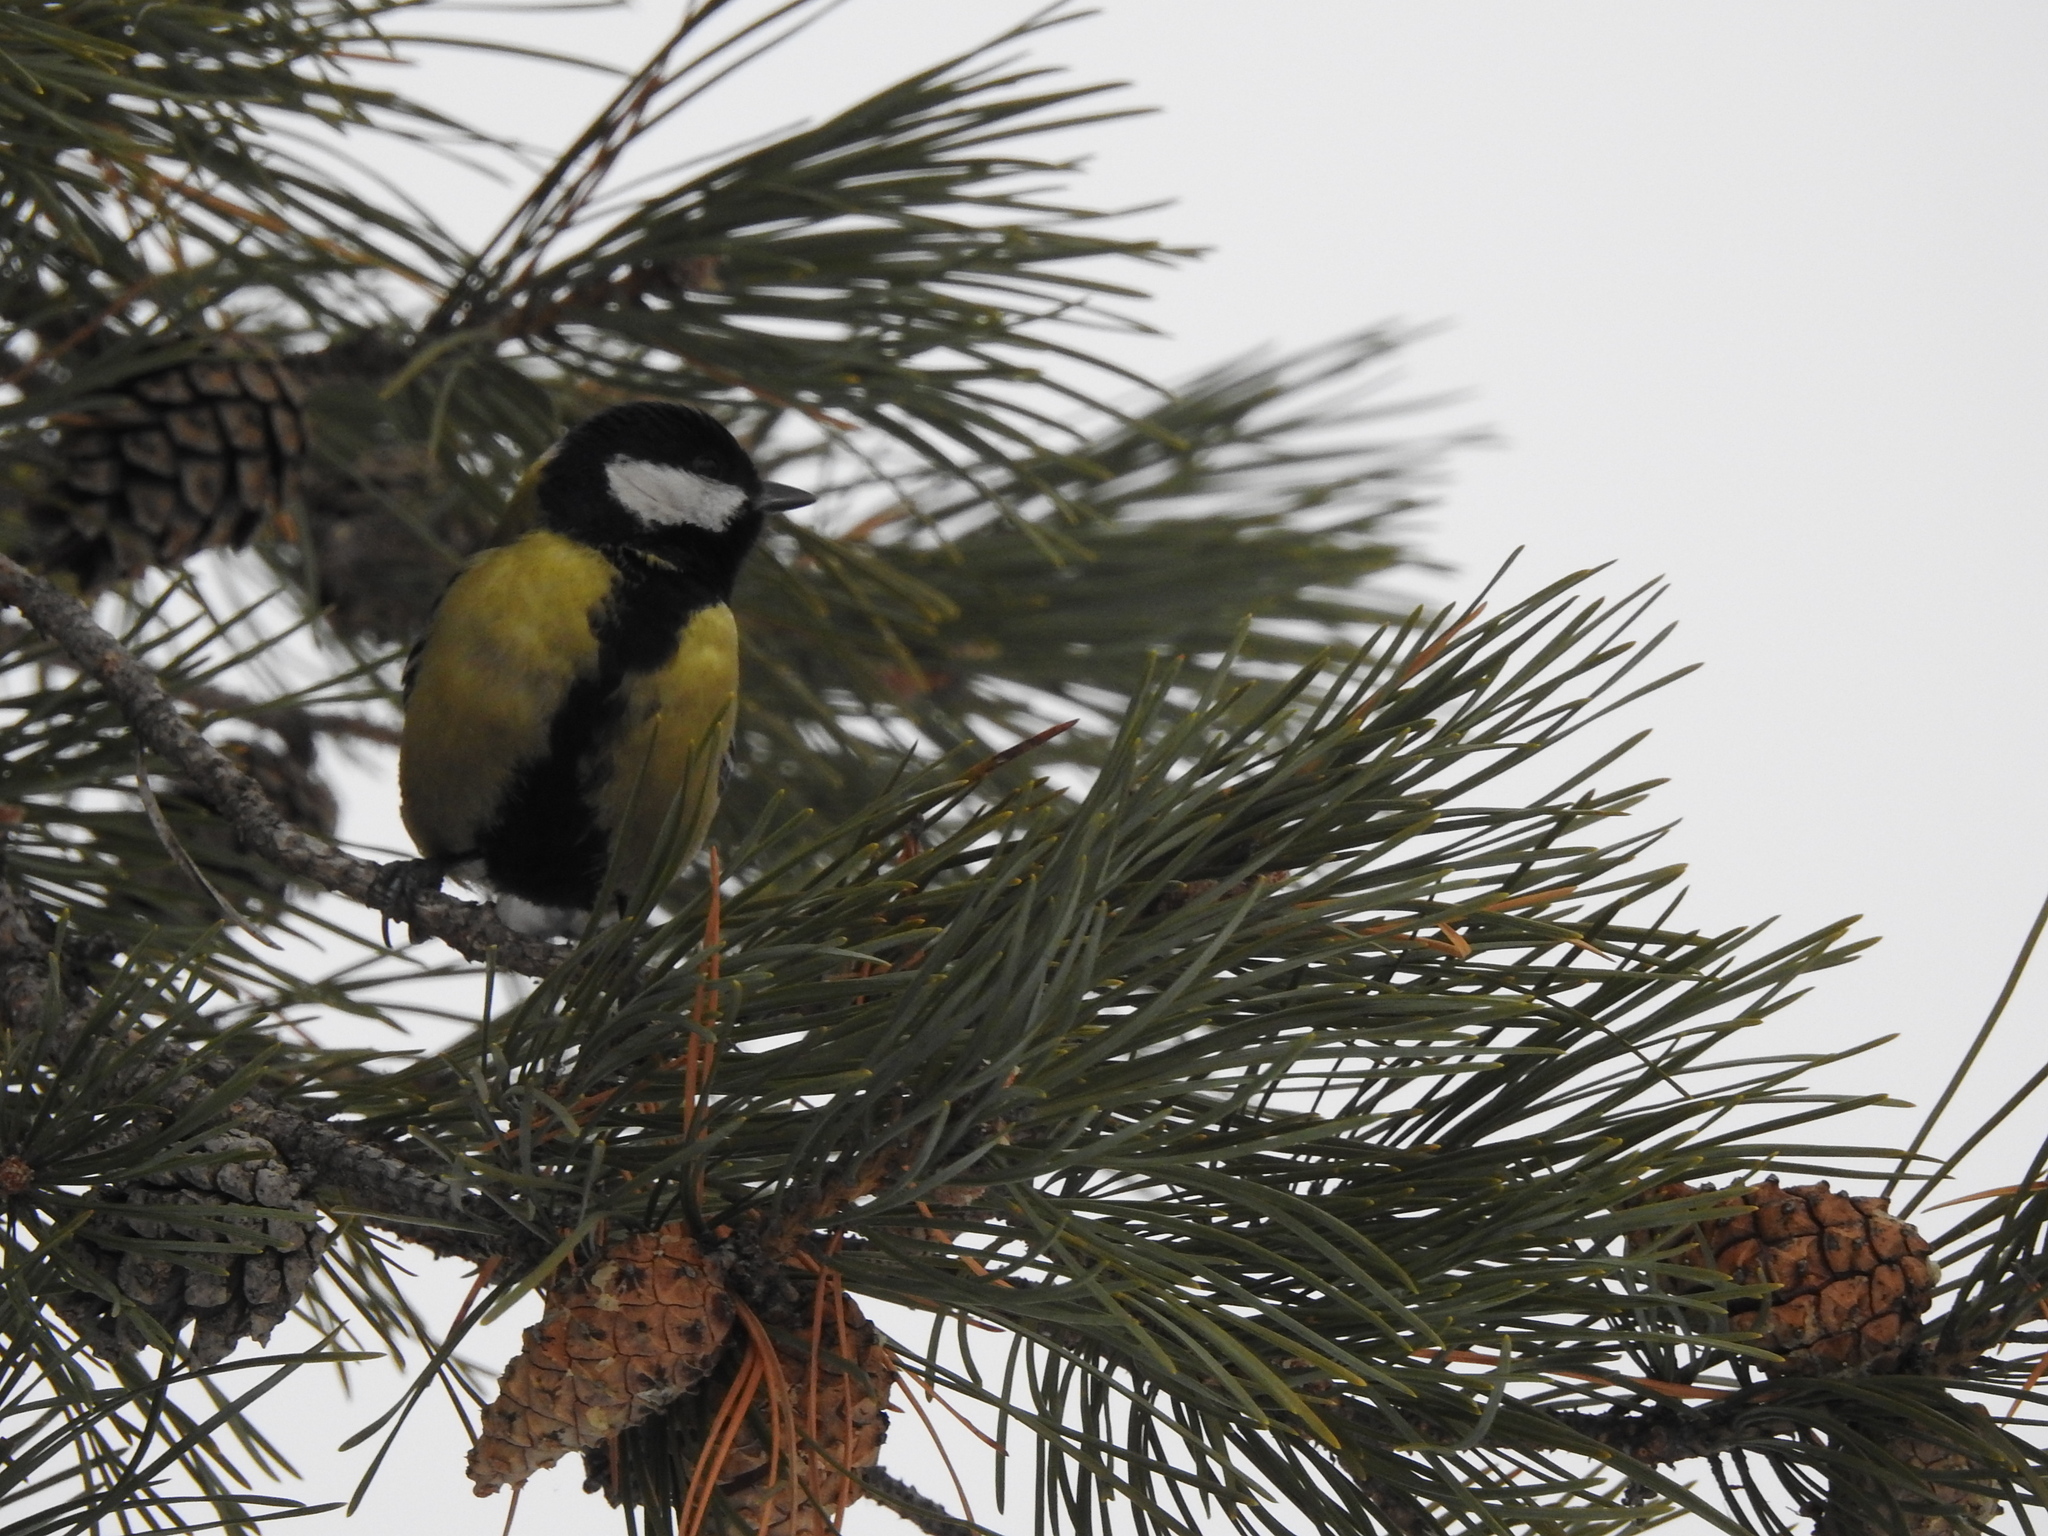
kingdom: Animalia
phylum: Chordata
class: Aves
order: Passeriformes
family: Paridae
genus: Parus
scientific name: Parus major
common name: Great tit
